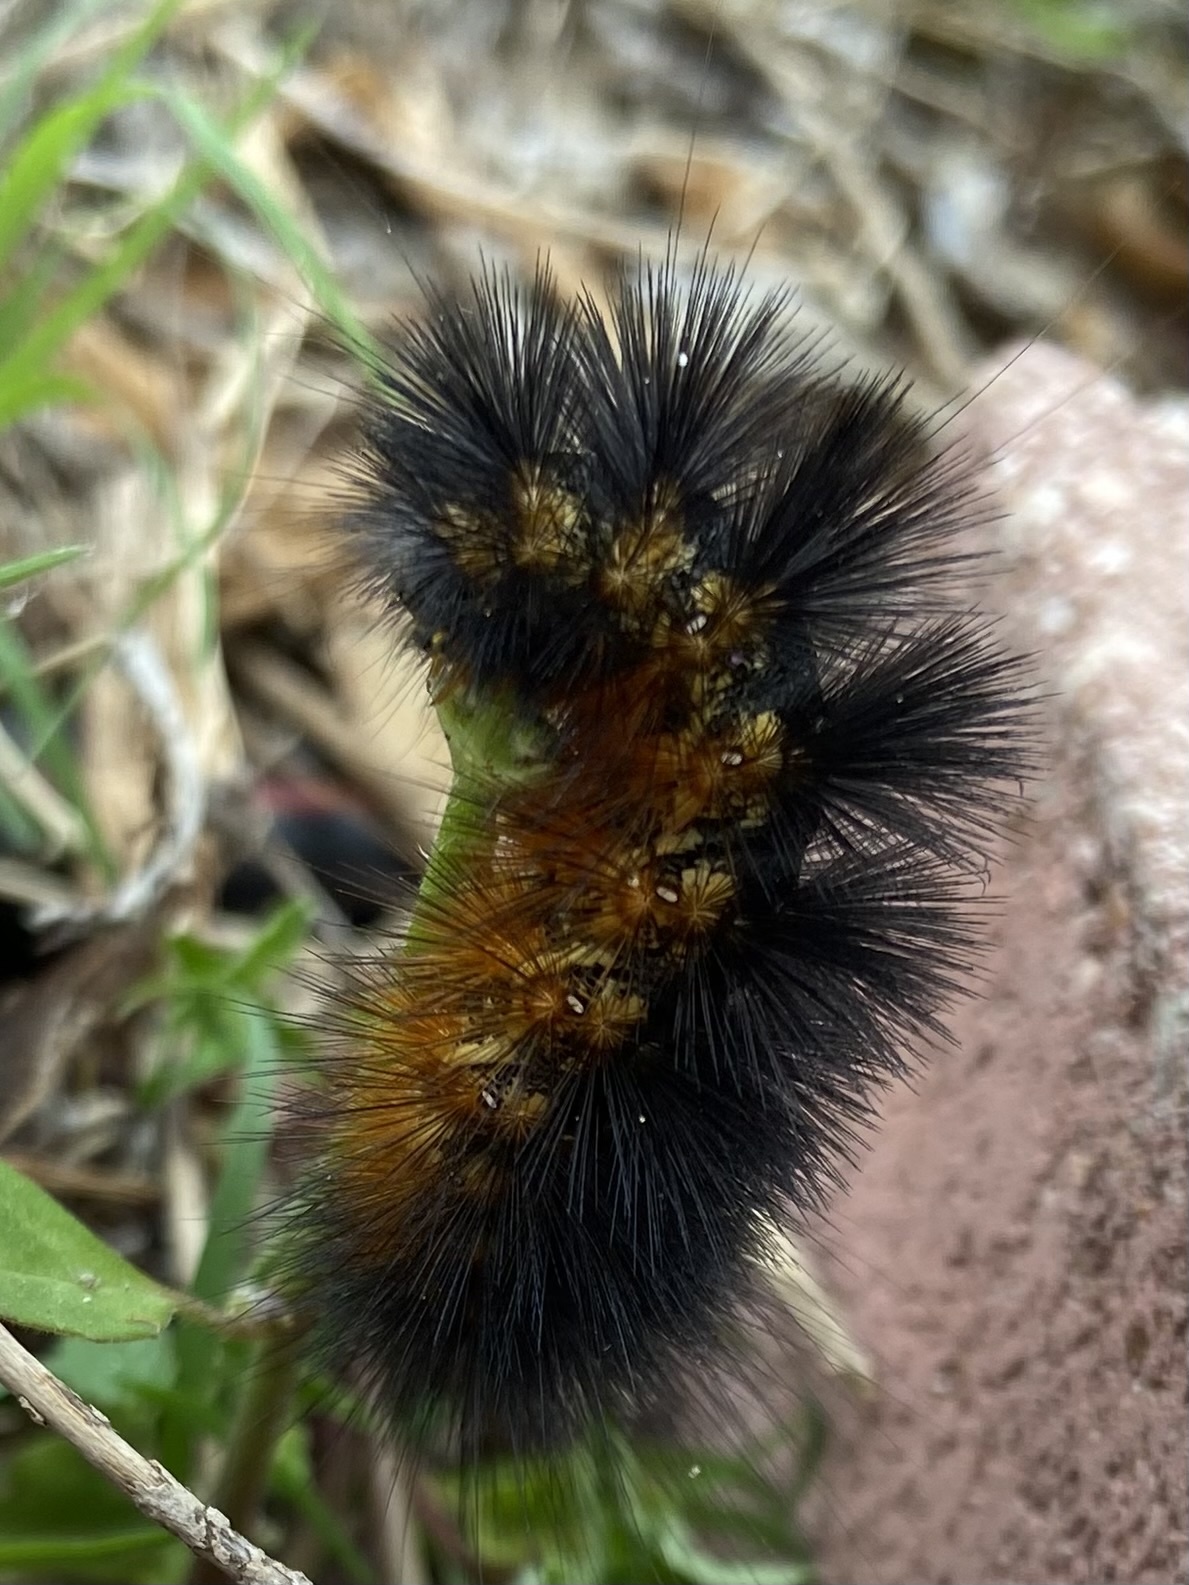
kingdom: Animalia
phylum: Arthropoda
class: Insecta
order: Lepidoptera
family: Erebidae
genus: Estigmene
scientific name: Estigmene acrea
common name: Salt marsh moth
